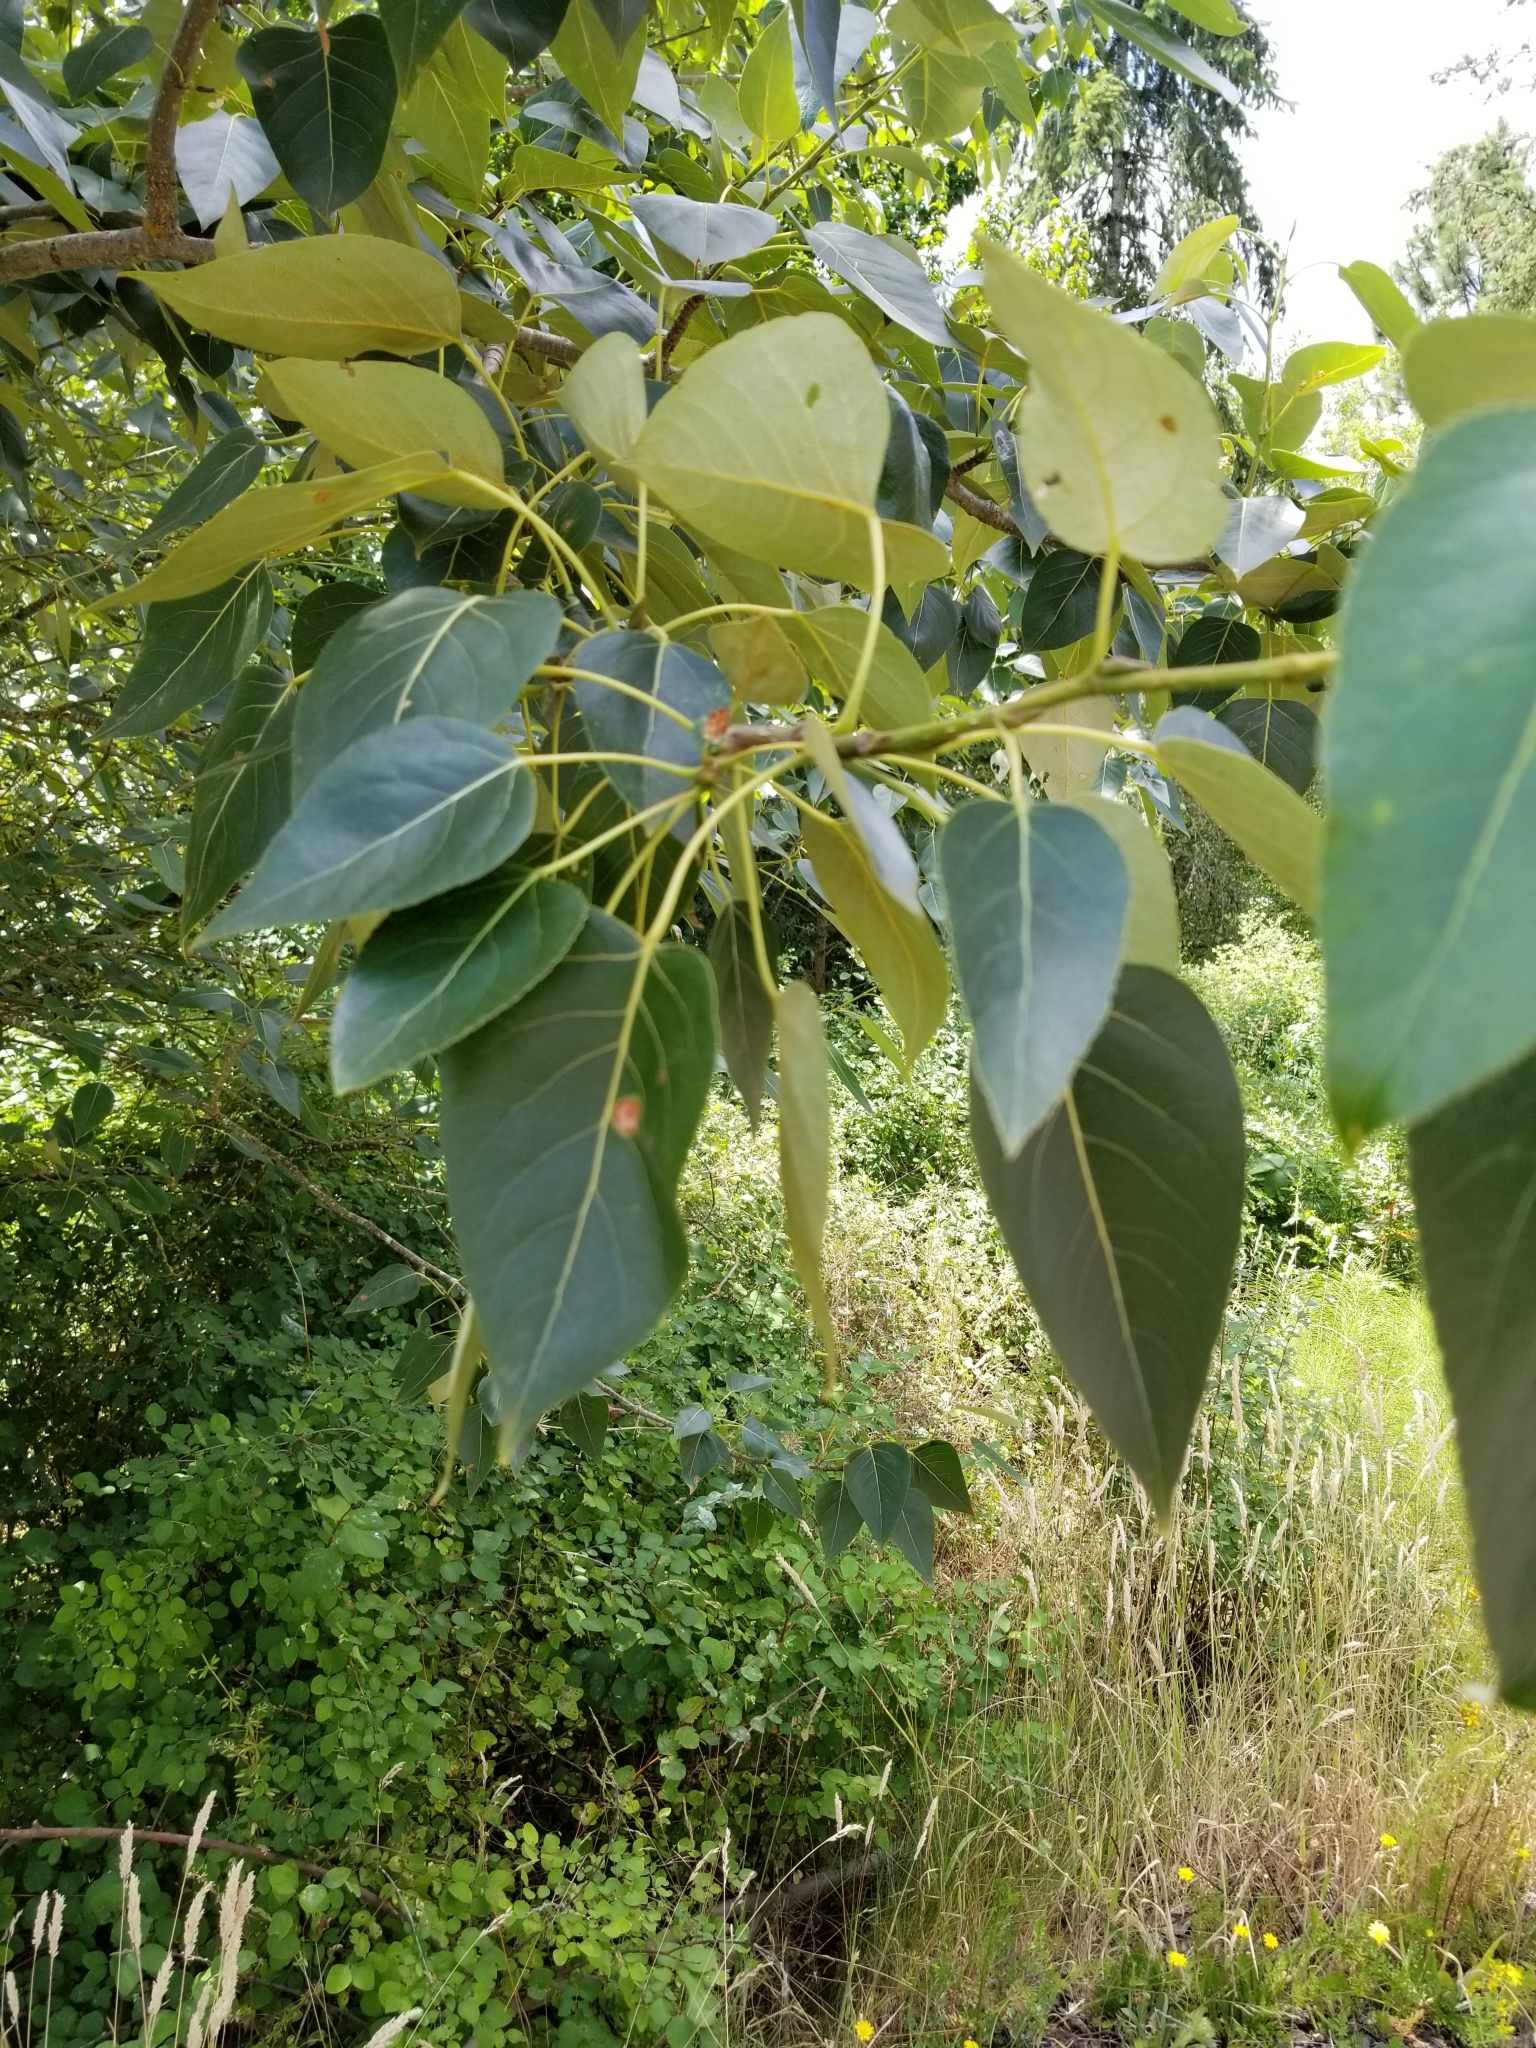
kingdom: Plantae
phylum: Tracheophyta
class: Magnoliopsida
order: Malpighiales
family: Salicaceae
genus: Populus
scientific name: Populus trichocarpa
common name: Black cottonwood
